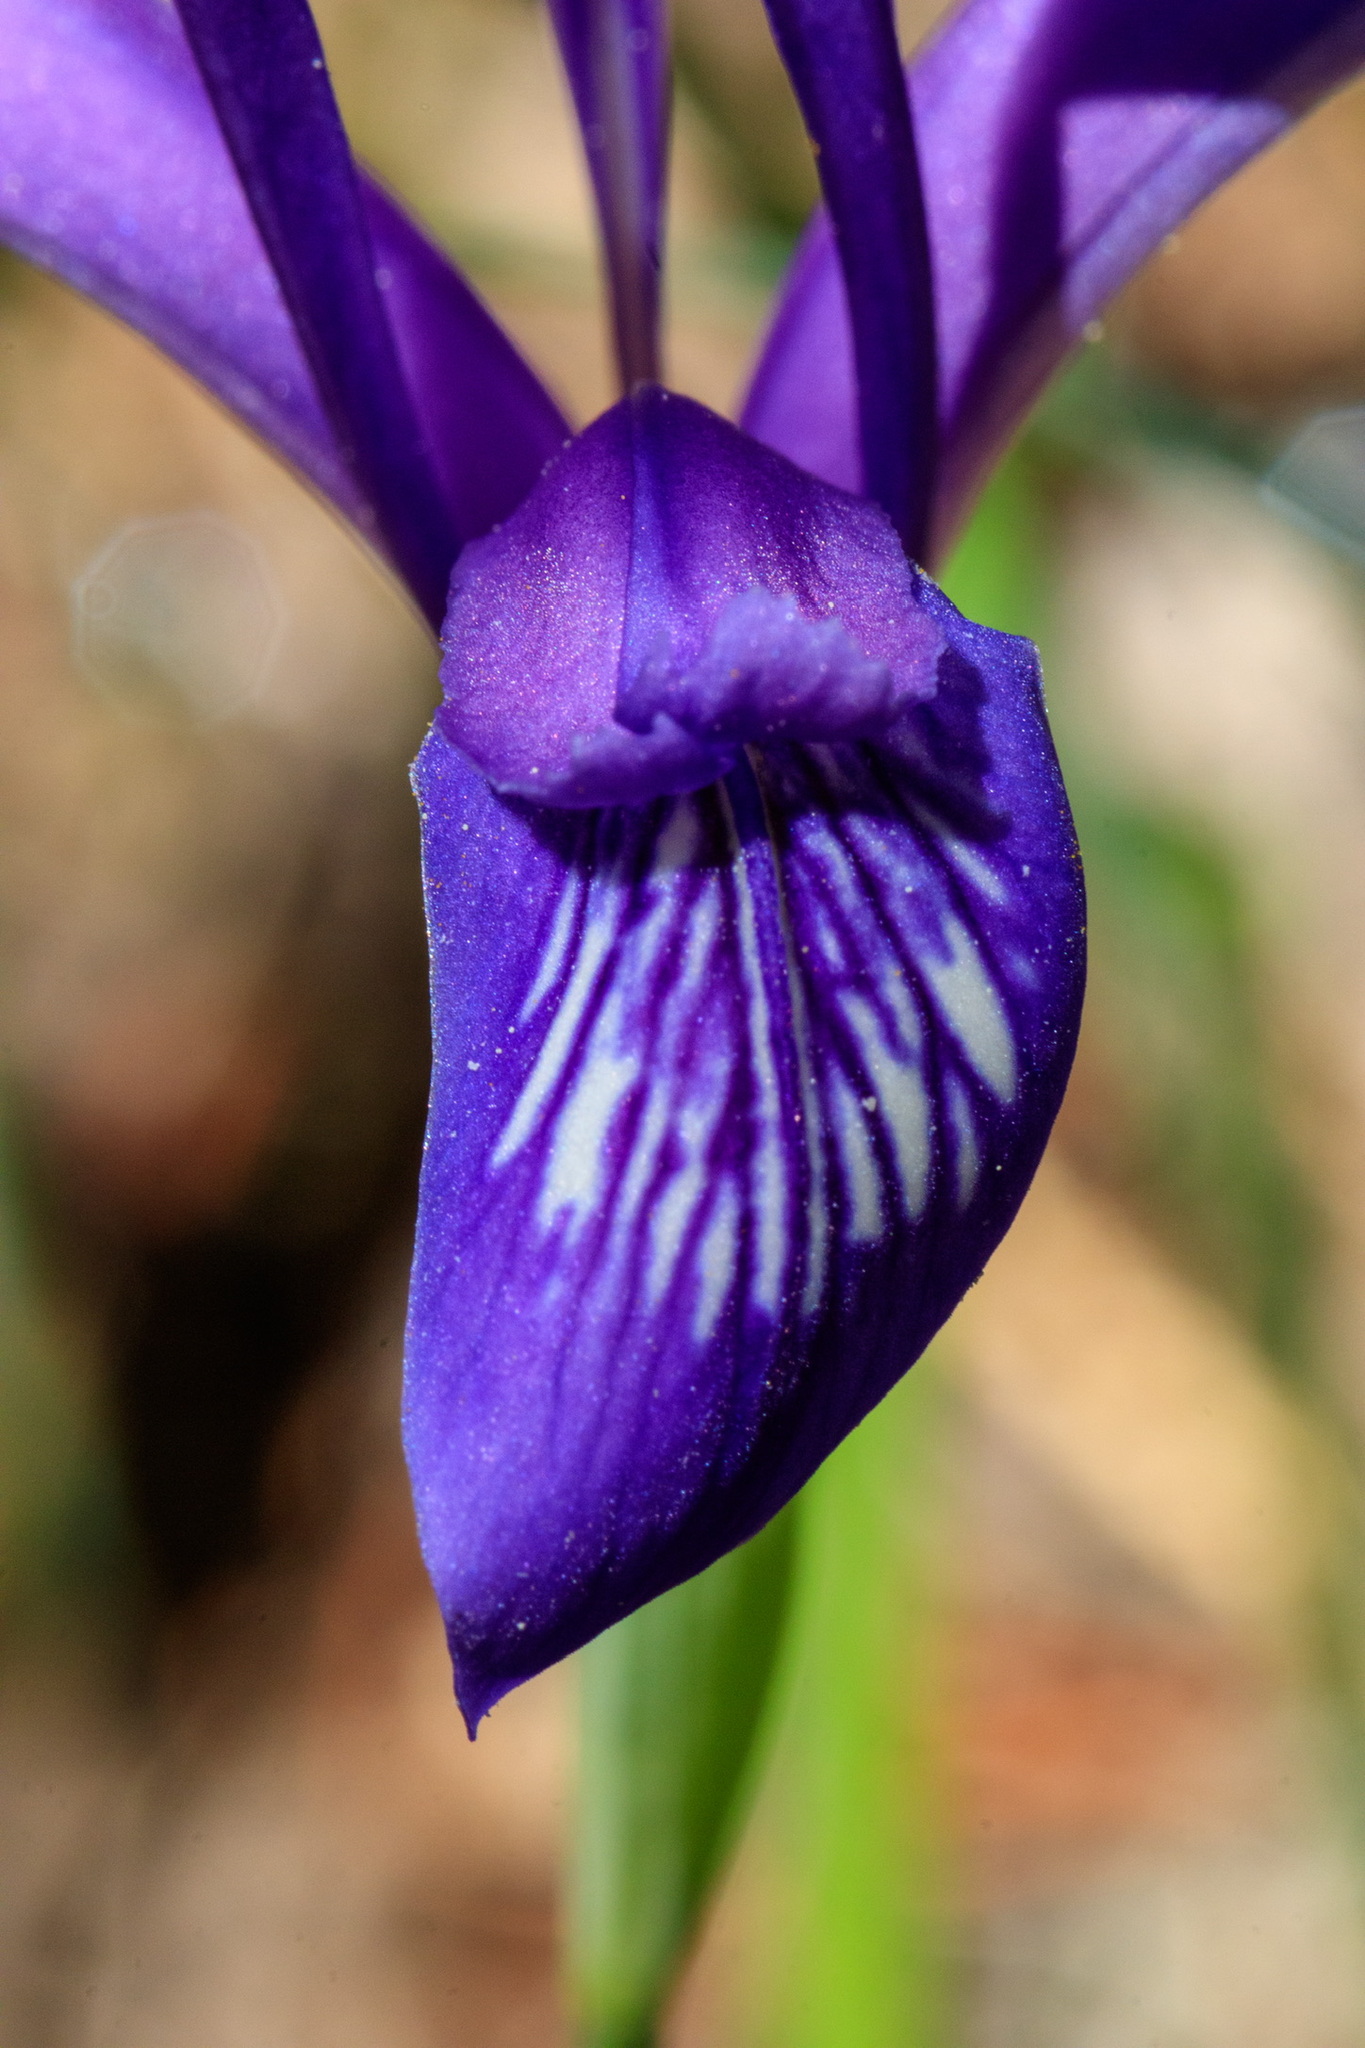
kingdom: Plantae
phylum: Tracheophyta
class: Liliopsida
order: Asparagales
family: Iridaceae
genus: Iris
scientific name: Iris ruthenica
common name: Purple-bract iris
